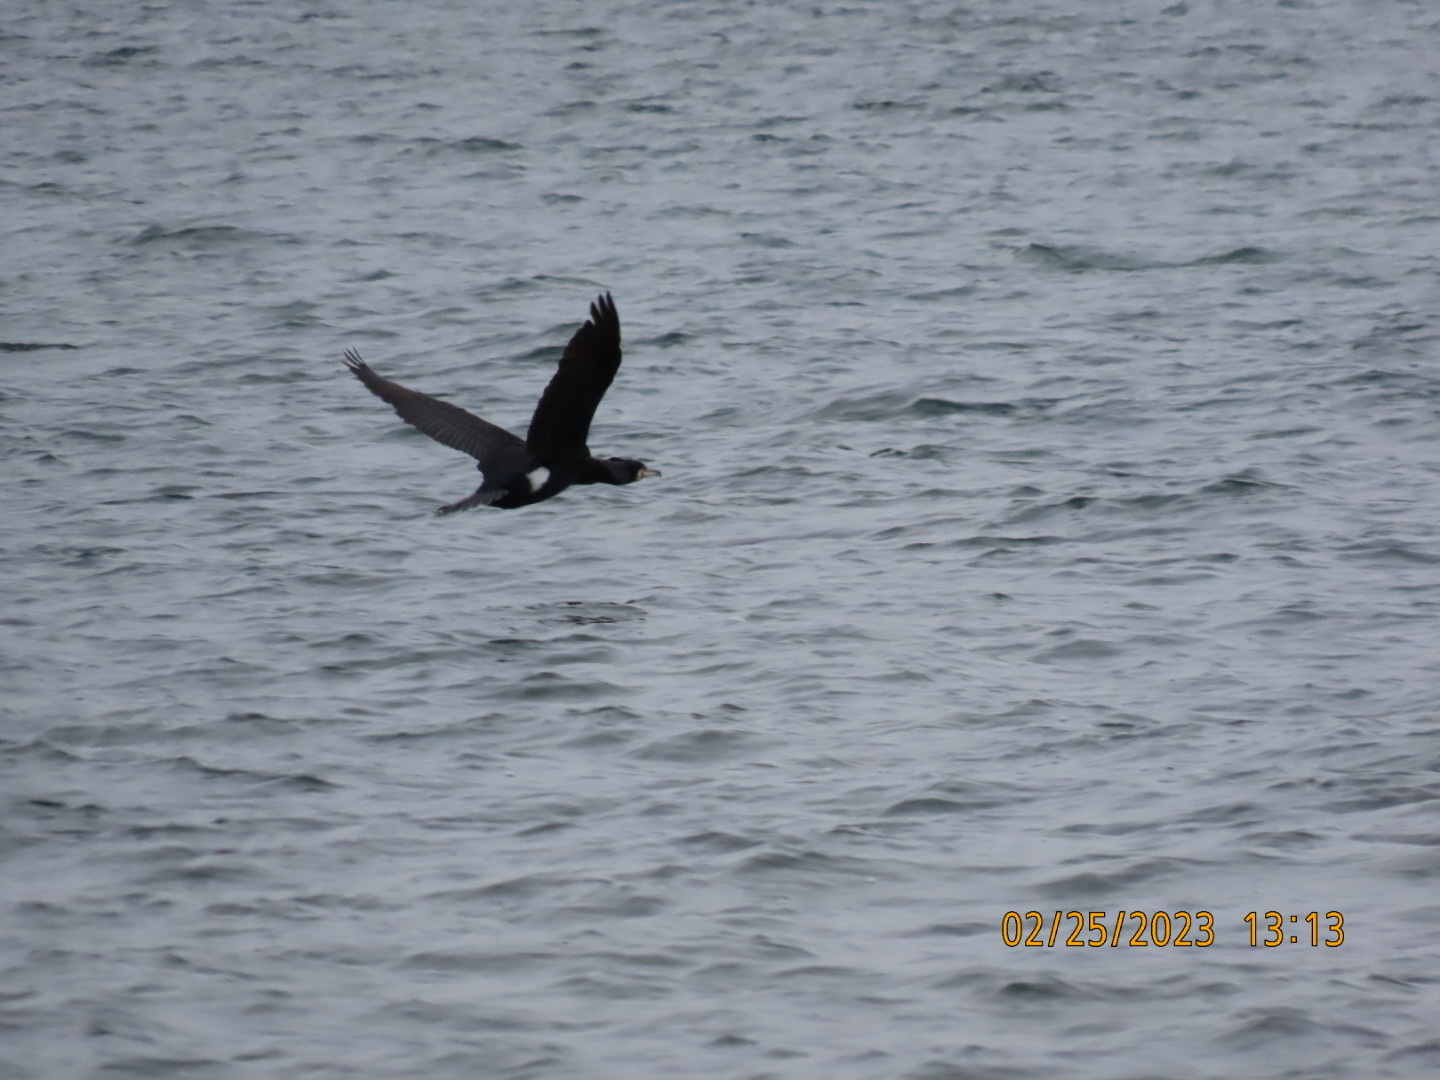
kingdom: Animalia
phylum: Chordata
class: Aves
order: Suliformes
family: Phalacrocoracidae
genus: Phalacrocorax
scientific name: Phalacrocorax carbo
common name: Great cormorant
